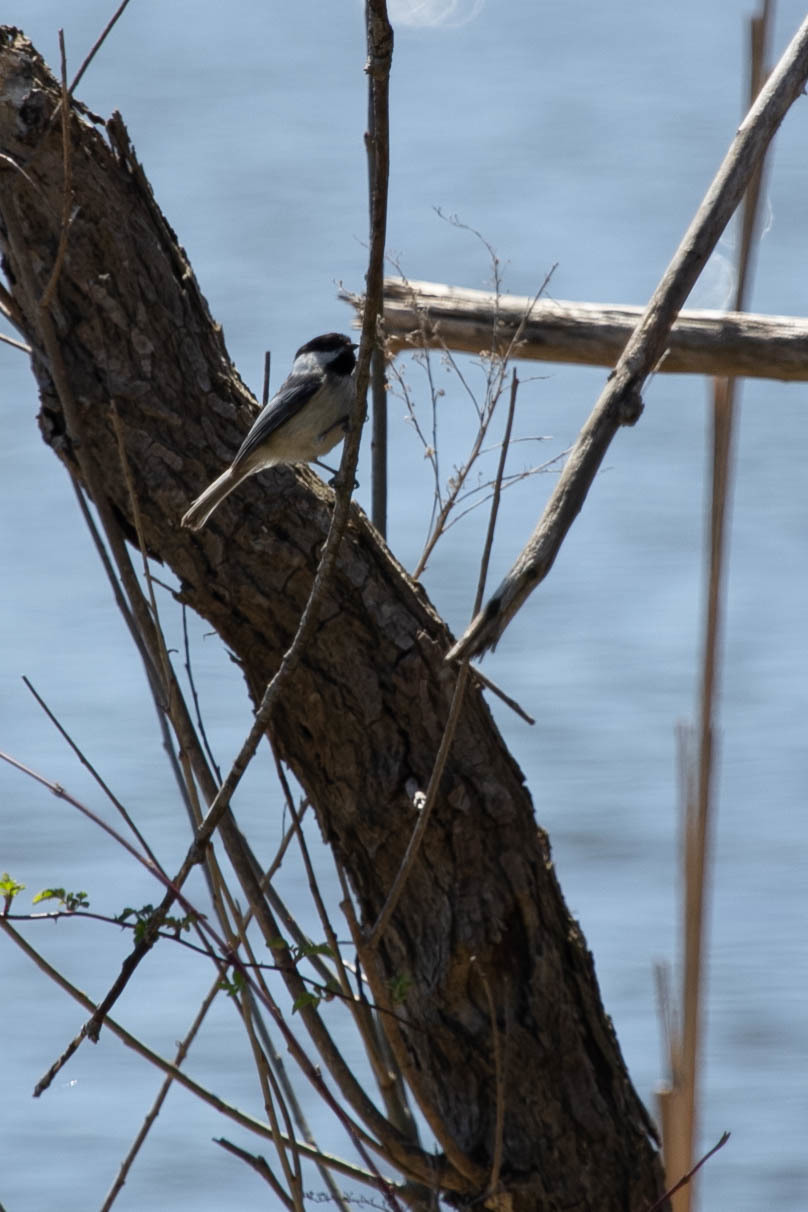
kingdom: Animalia
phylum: Chordata
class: Aves
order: Passeriformes
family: Paridae
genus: Poecile
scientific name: Poecile atricapillus
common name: Black-capped chickadee
